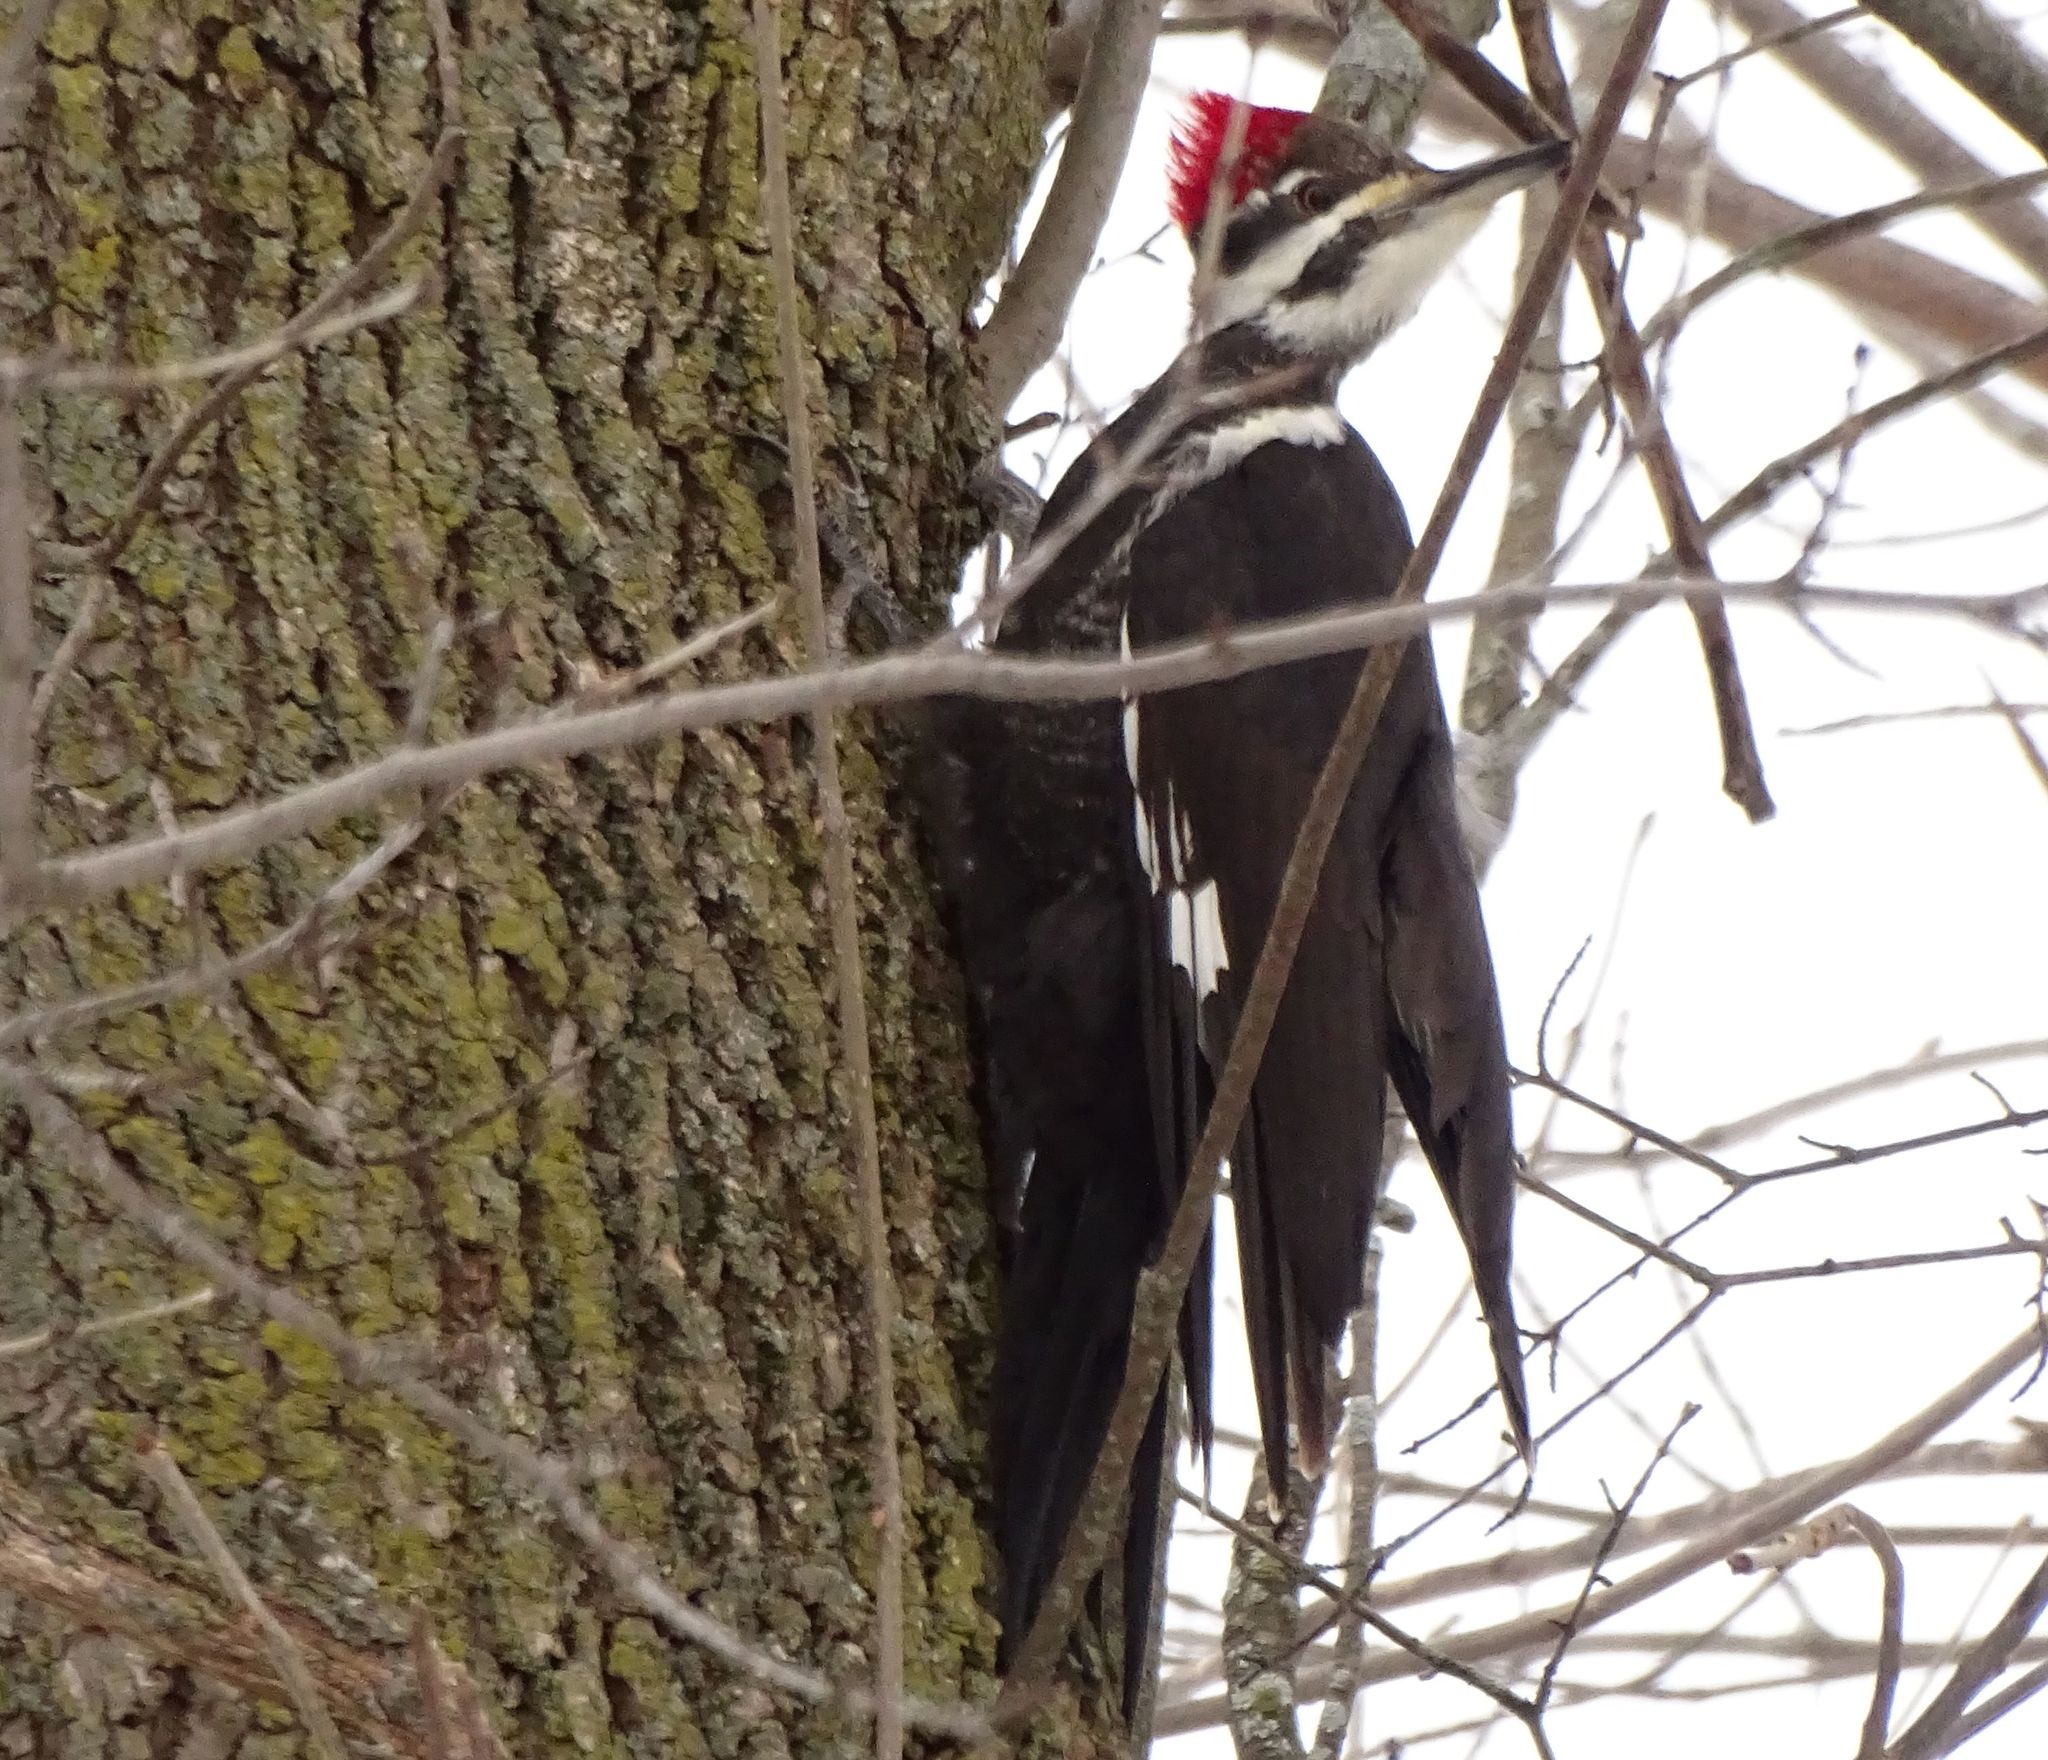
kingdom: Animalia
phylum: Chordata
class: Aves
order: Piciformes
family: Picidae
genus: Dryocopus
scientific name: Dryocopus pileatus
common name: Pileated woodpecker
